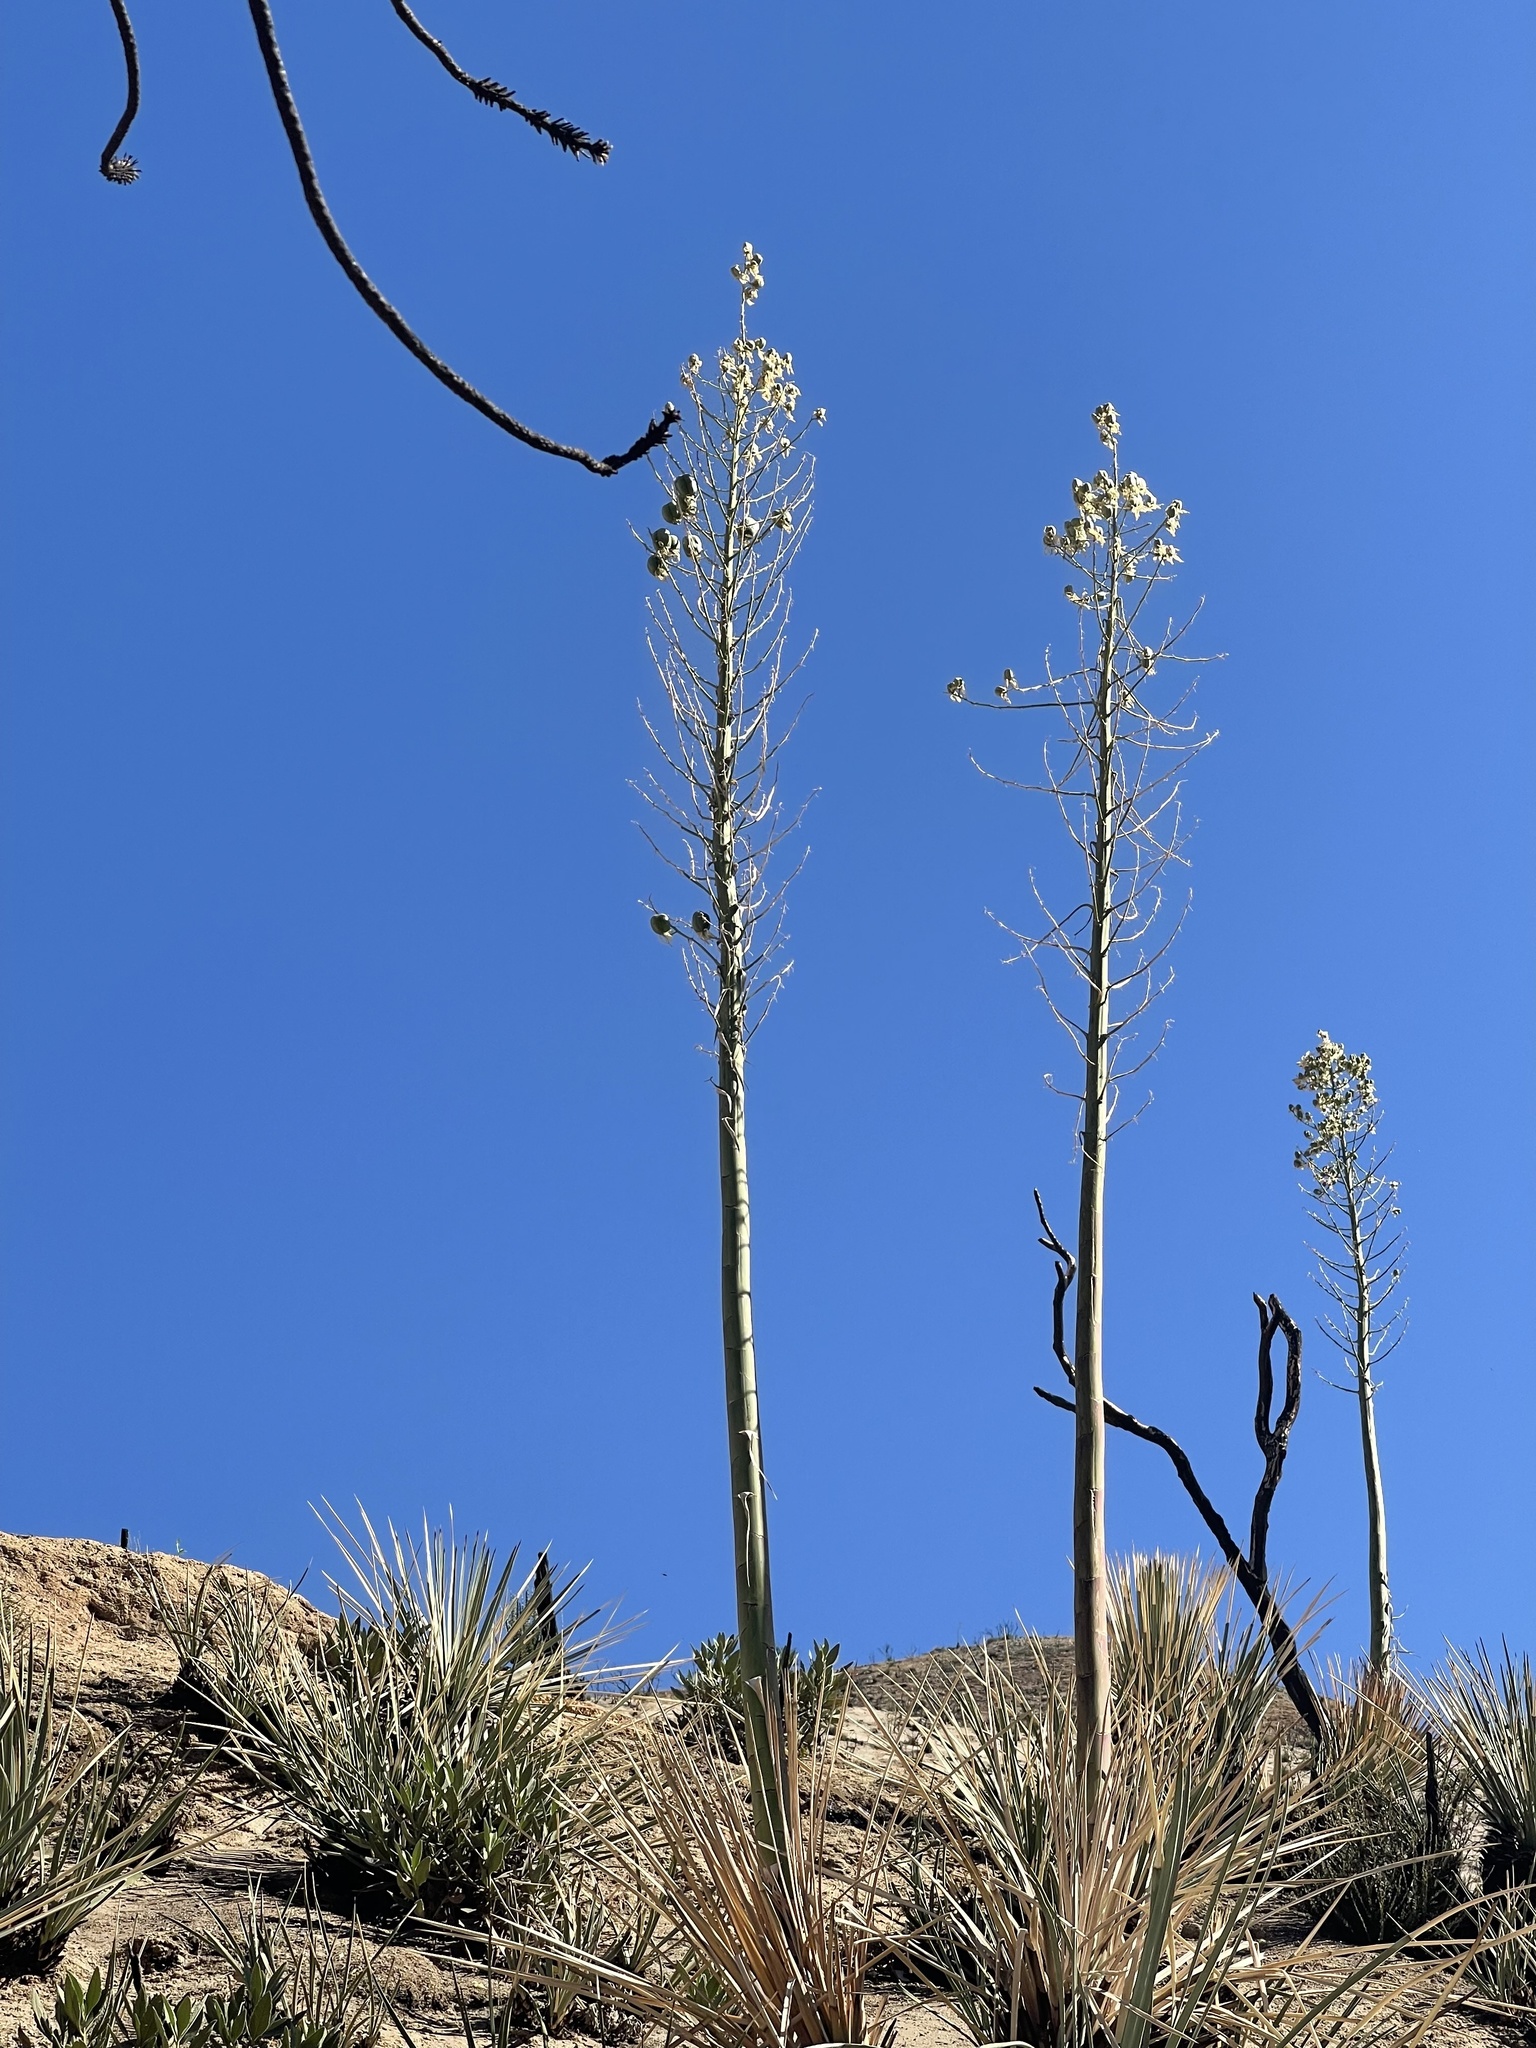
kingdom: Plantae
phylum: Tracheophyta
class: Liliopsida
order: Asparagales
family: Asparagaceae
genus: Hesperoyucca
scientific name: Hesperoyucca whipplei
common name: Our lord's-candle
